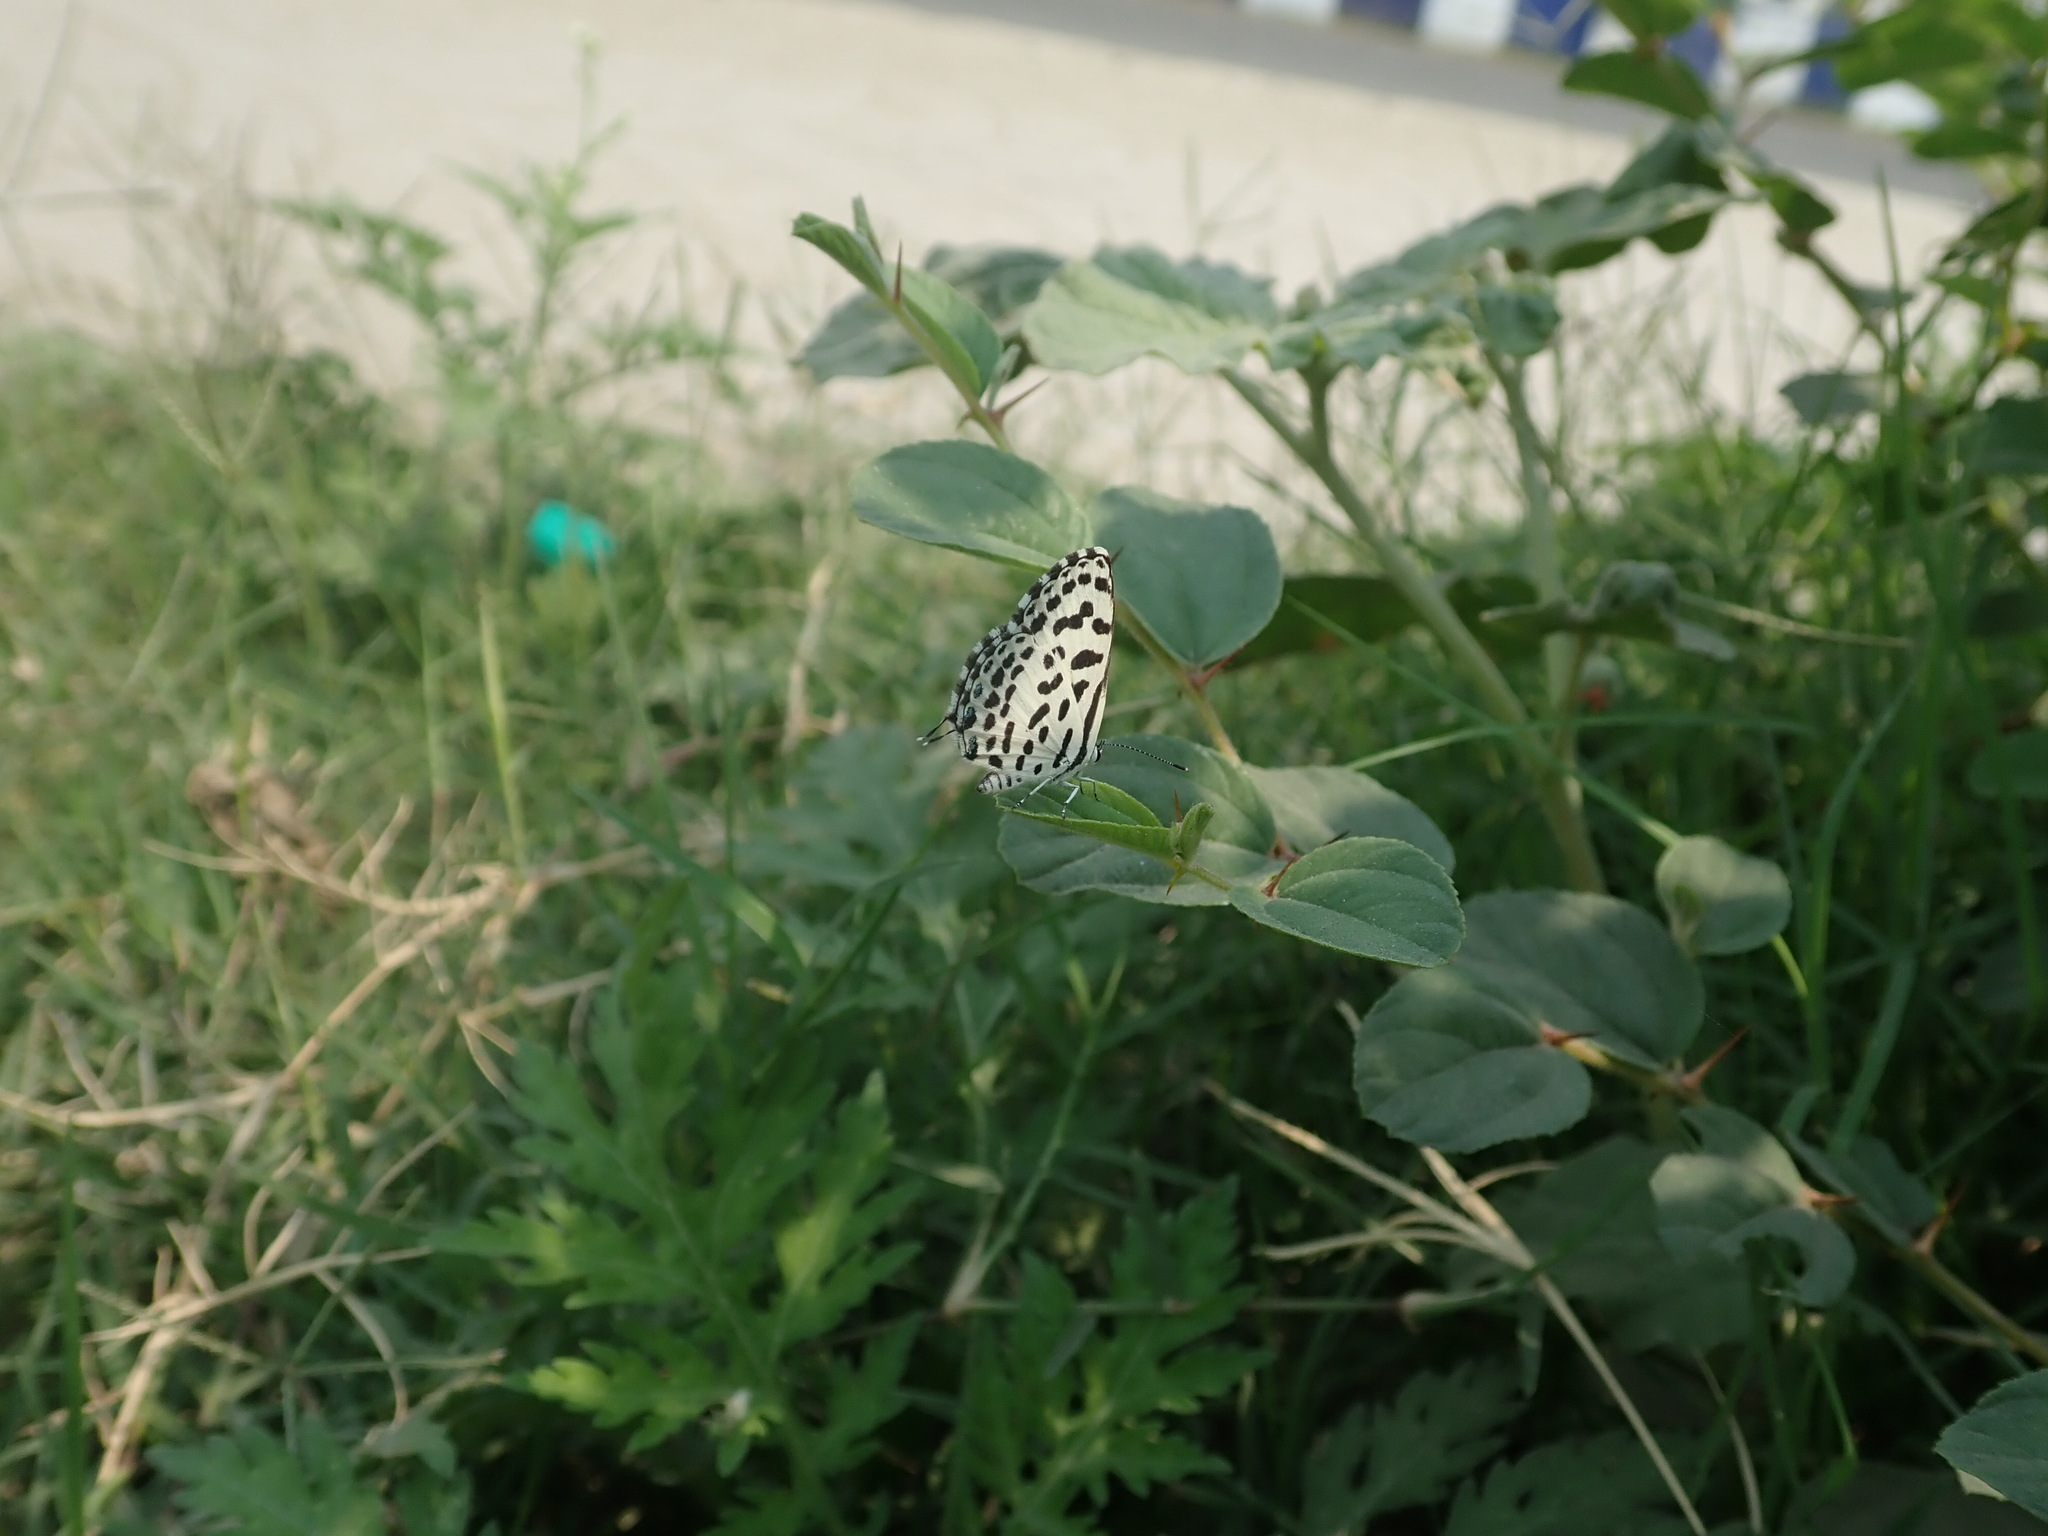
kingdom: Animalia
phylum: Arthropoda
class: Insecta
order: Lepidoptera
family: Lycaenidae
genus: Castalius
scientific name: Castalius rosimon
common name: Common pierrot
